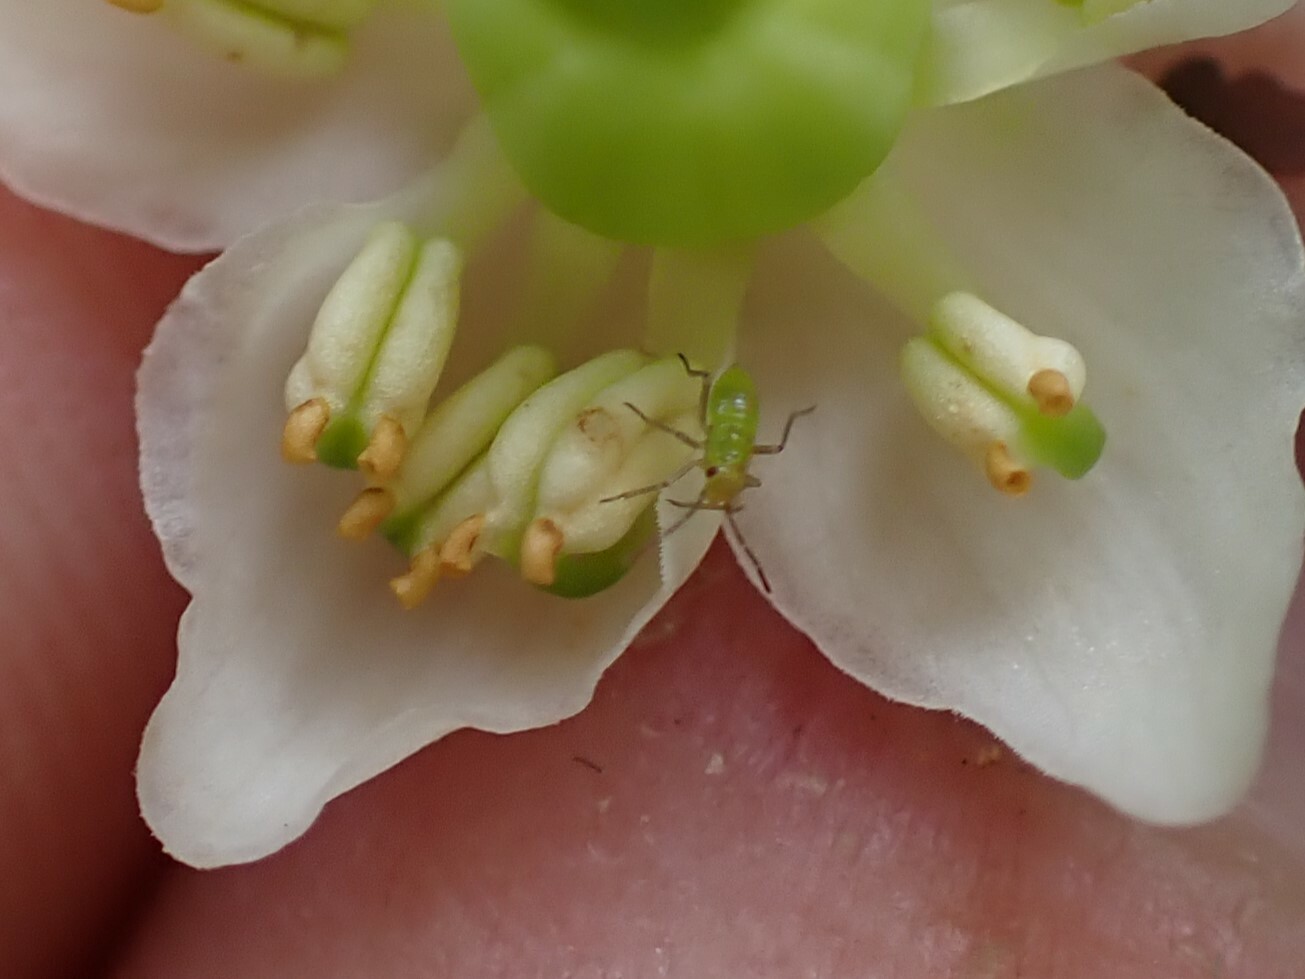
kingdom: Plantae
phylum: Tracheophyta
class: Magnoliopsida
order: Ericales
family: Ericaceae
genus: Moneses
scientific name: Moneses uniflora
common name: One-flowered wintergreen
